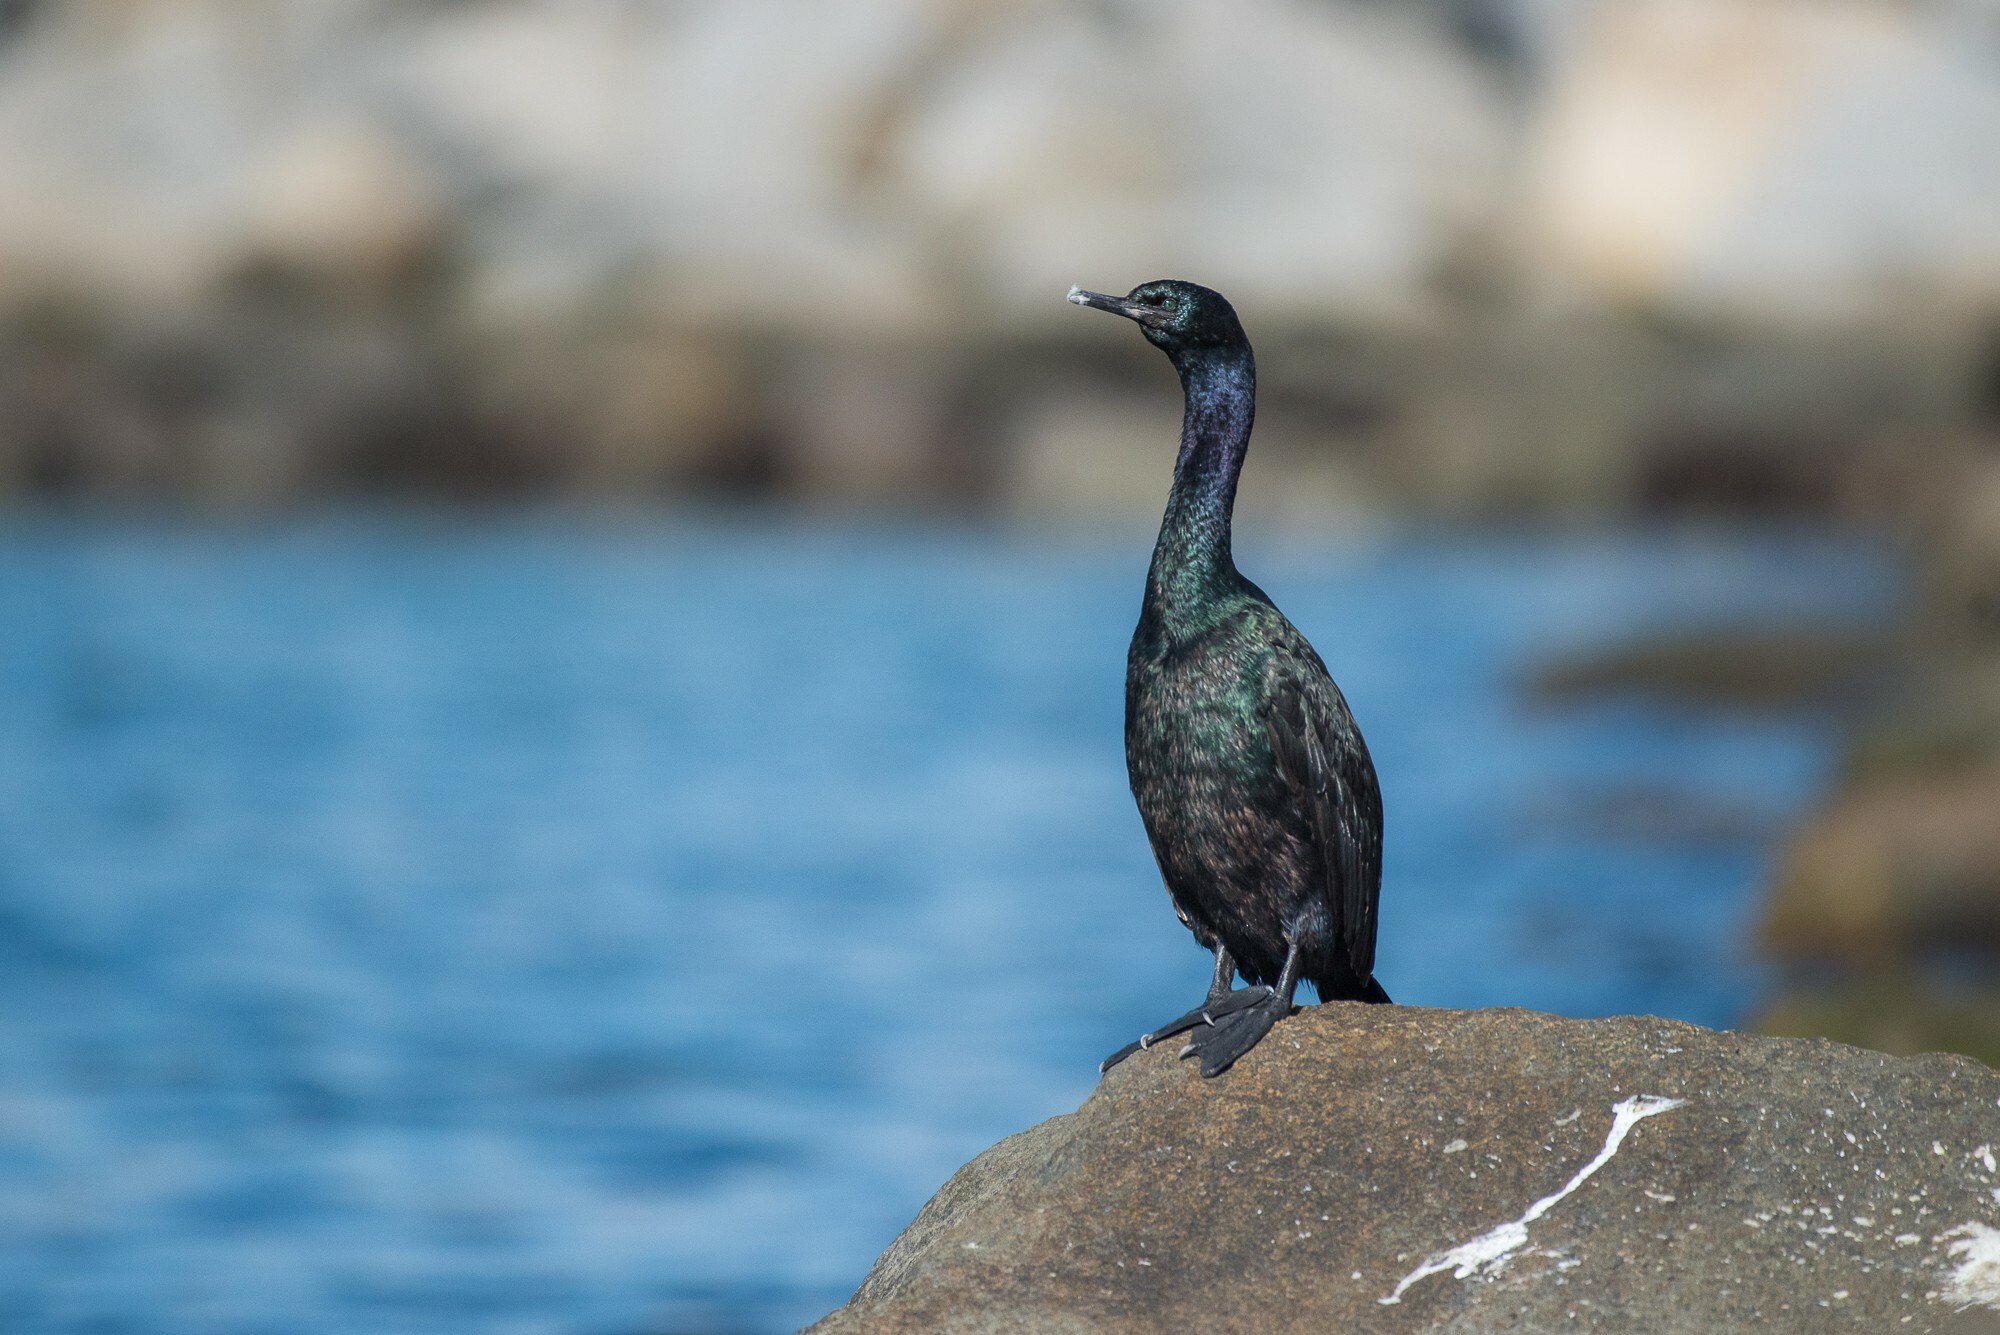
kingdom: Animalia
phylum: Chordata
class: Aves
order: Suliformes
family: Phalacrocoracidae
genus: Phalacrocorax
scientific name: Phalacrocorax pelagicus
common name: Pelagic cormorant
